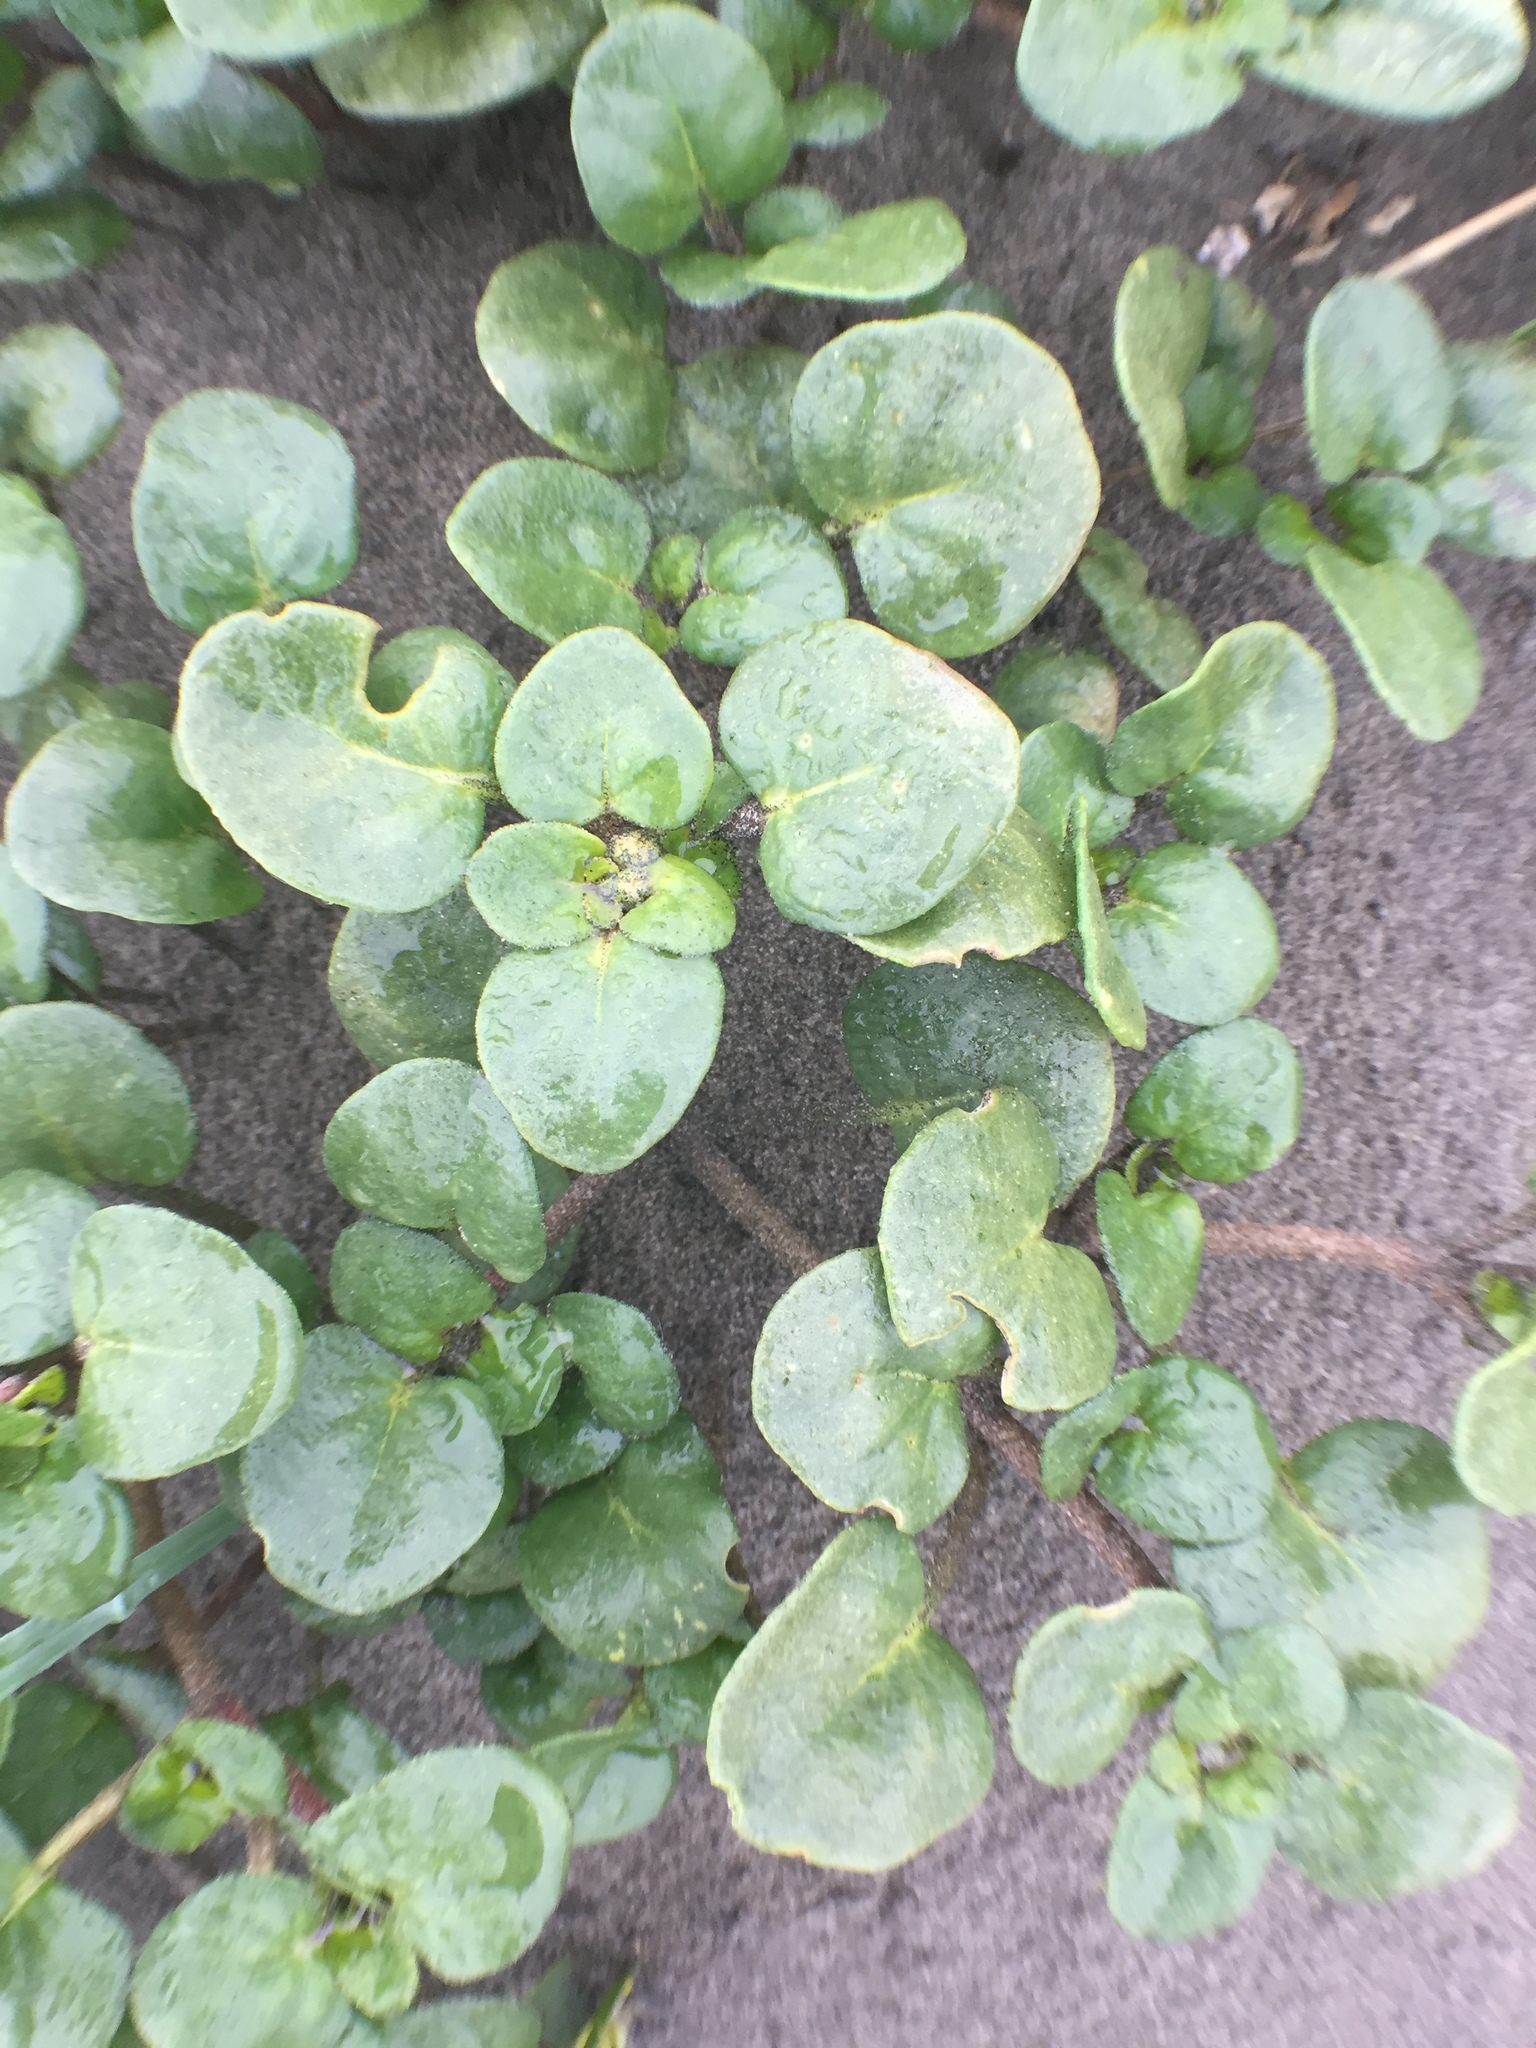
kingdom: Plantae
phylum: Tracheophyta
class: Magnoliopsida
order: Caryophyllales
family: Nyctaginaceae
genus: Abronia
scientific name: Abronia latifolia
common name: Yellow sand-verbena
